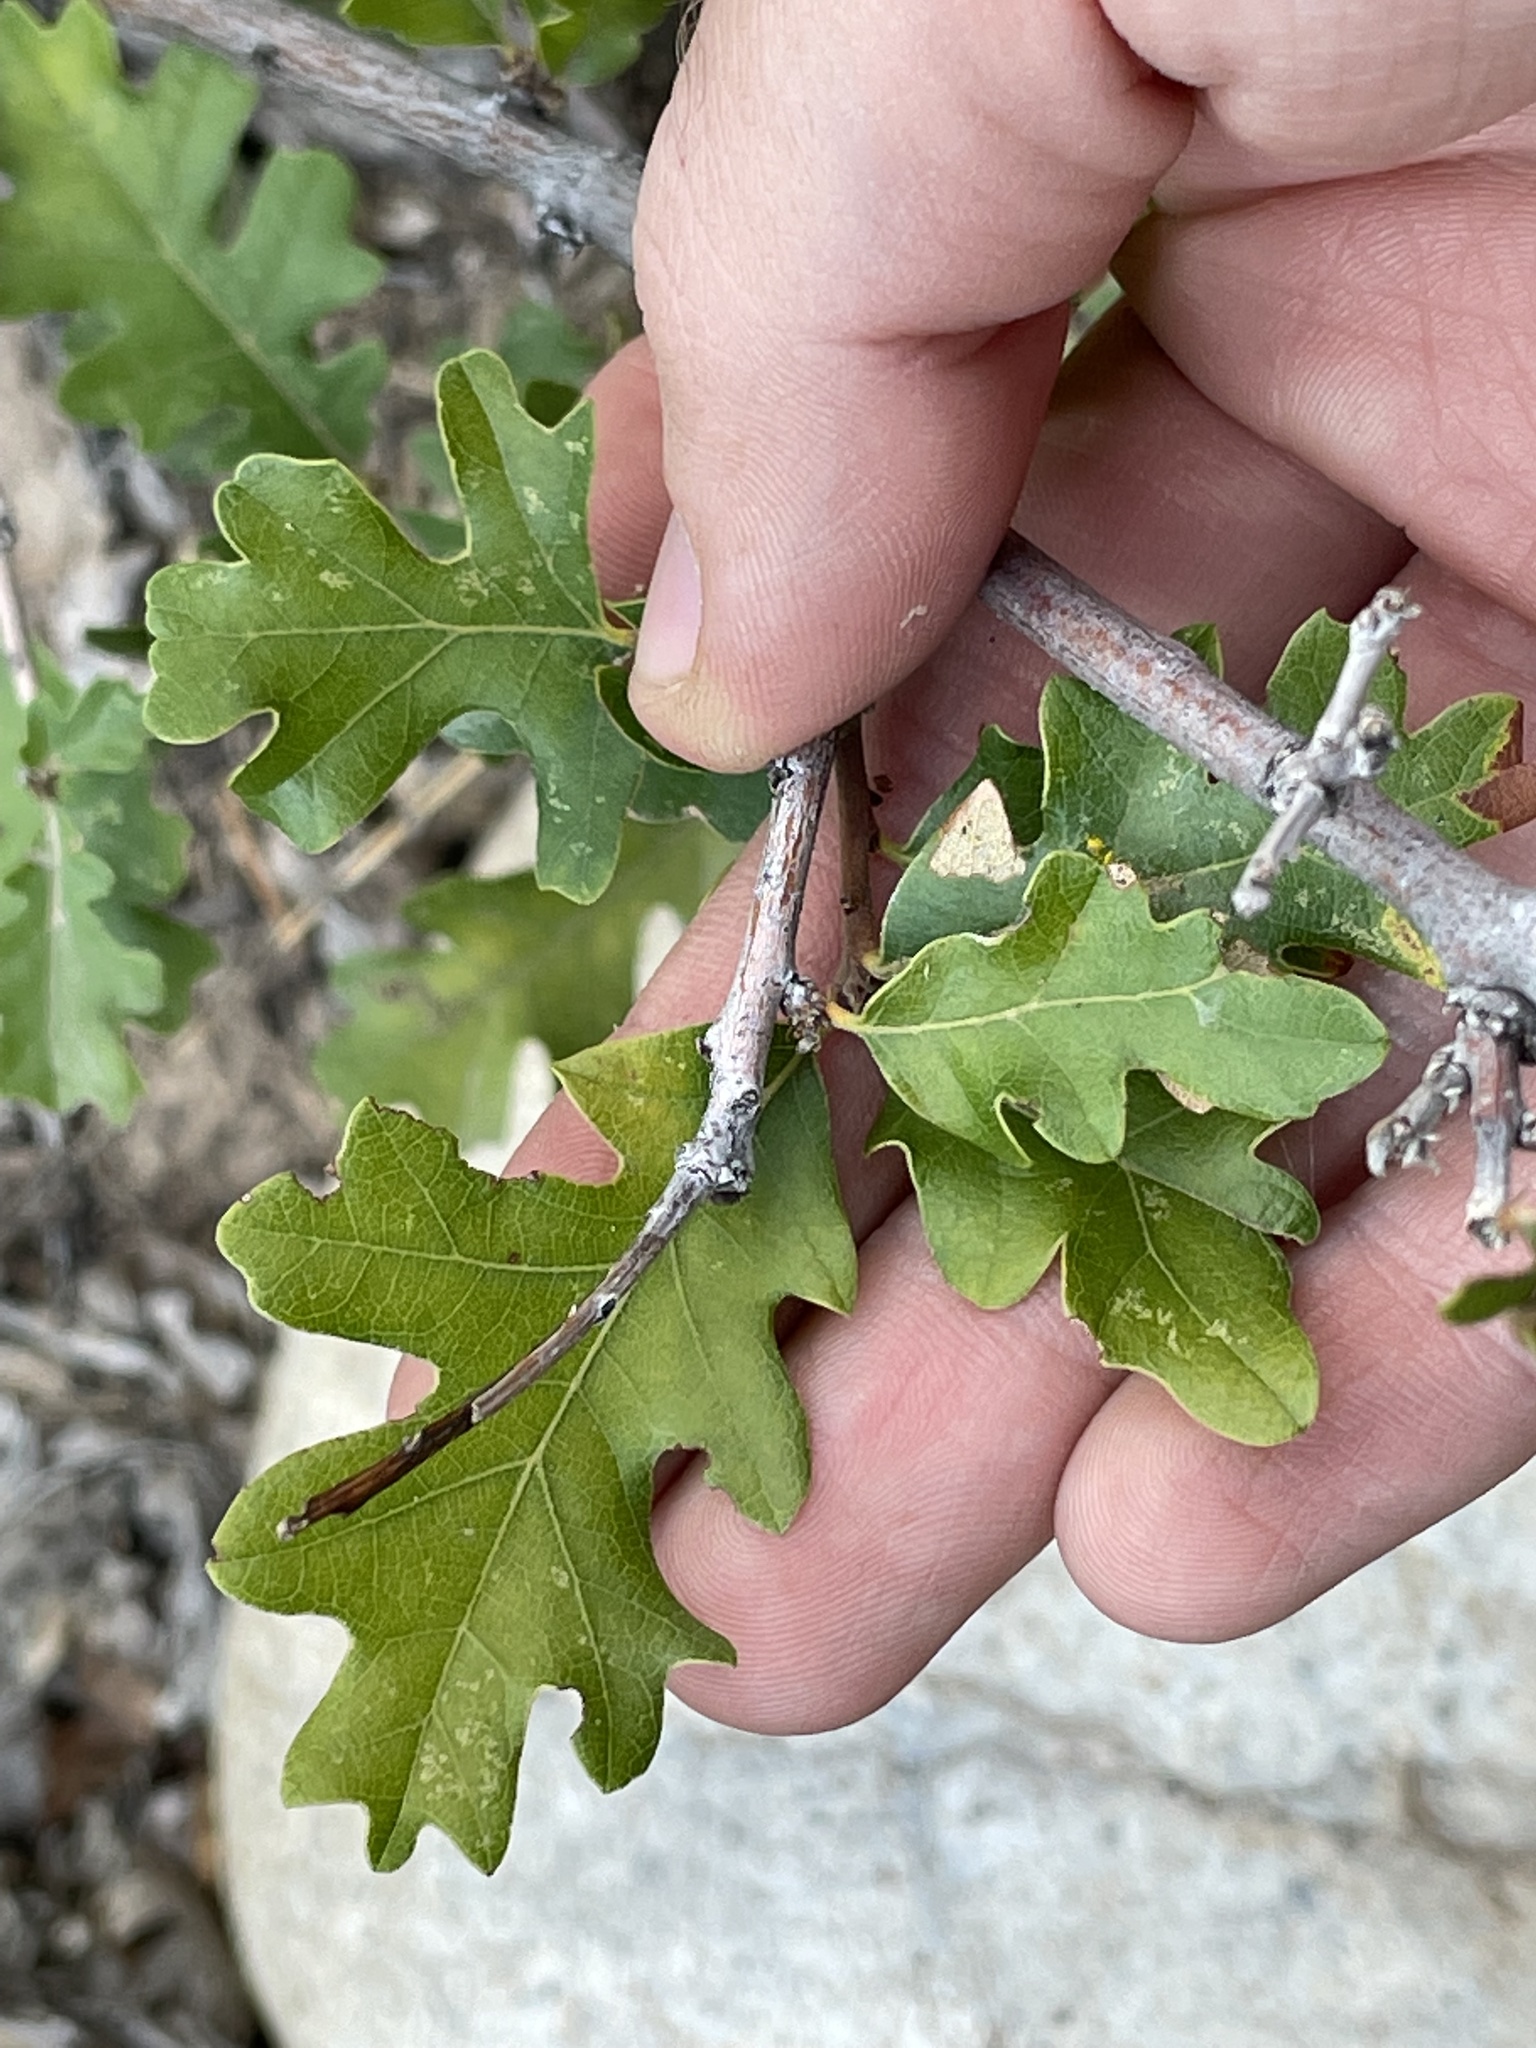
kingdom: Plantae
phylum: Tracheophyta
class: Magnoliopsida
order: Fagales
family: Fagaceae
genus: Quercus
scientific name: Quercus gambelii
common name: Gambel oak
